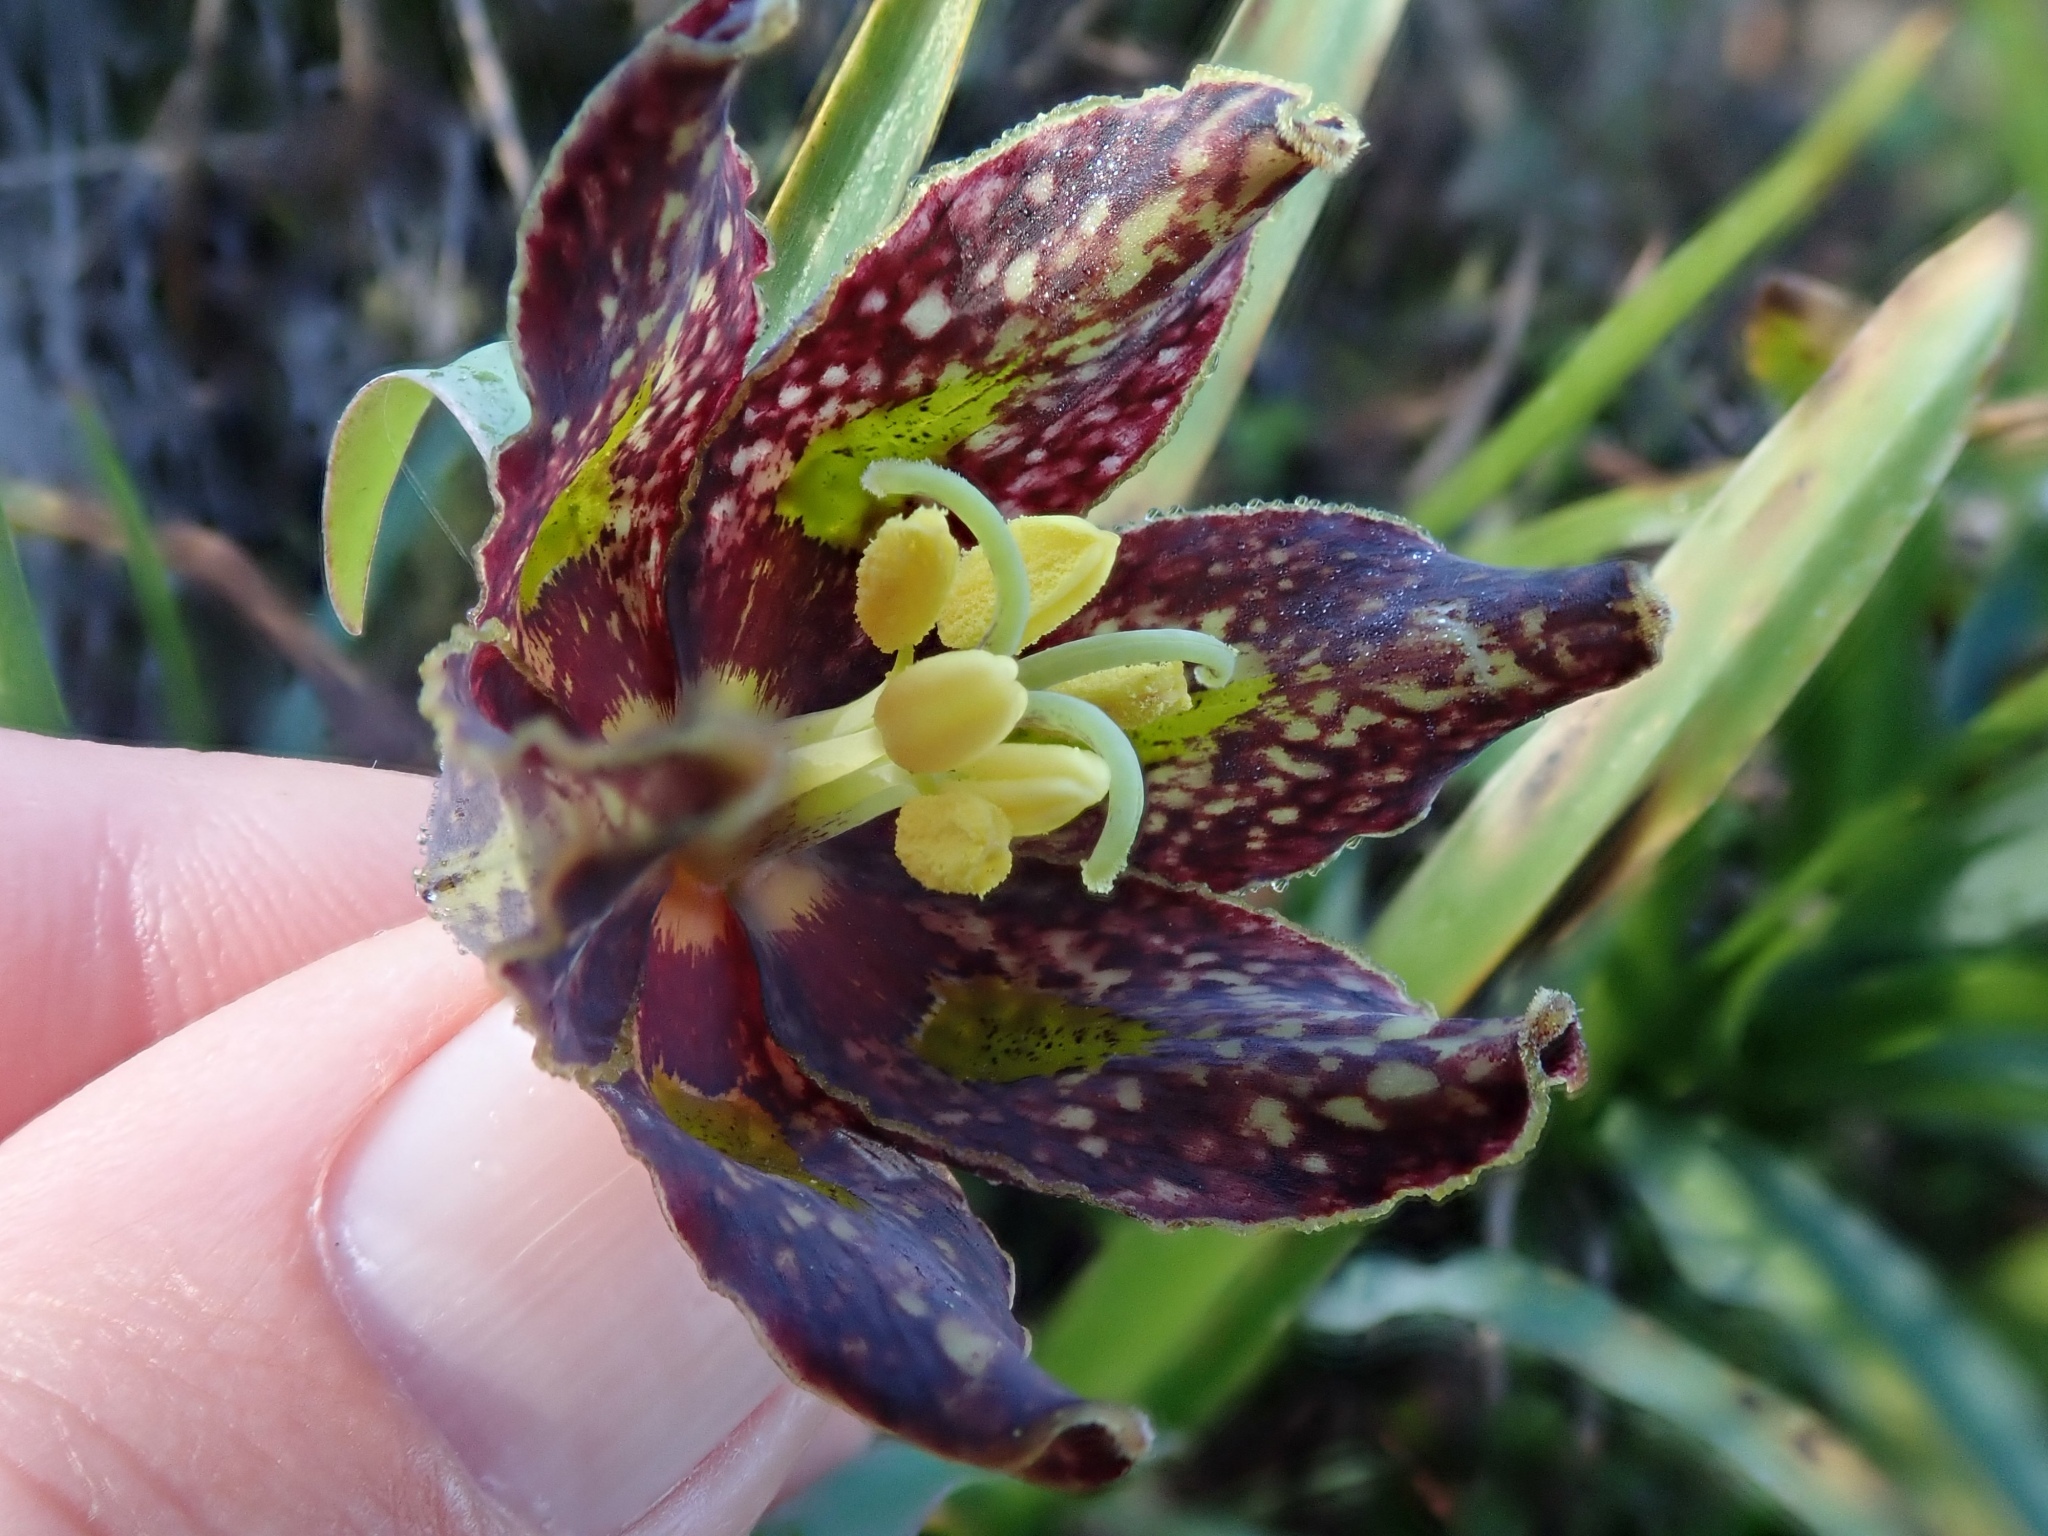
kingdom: Plantae
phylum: Tracheophyta
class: Liliopsida
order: Liliales
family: Liliaceae
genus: Fritillaria
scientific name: Fritillaria affinis
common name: Ojai fritillary
